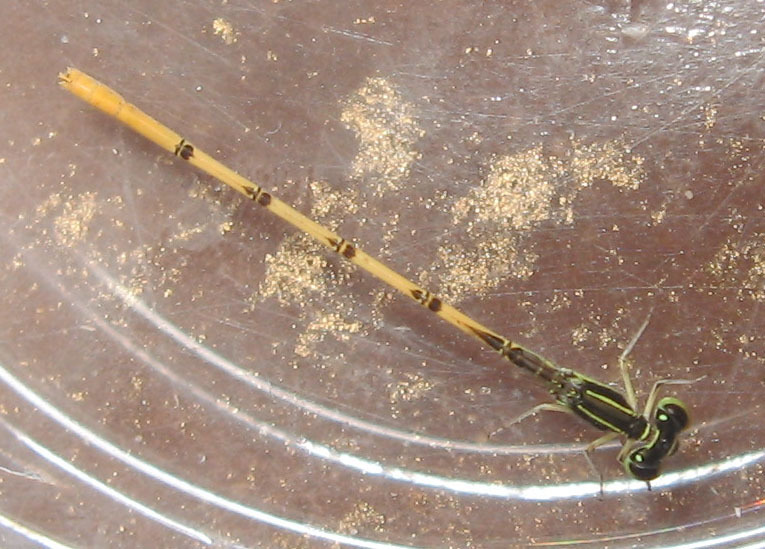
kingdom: Animalia
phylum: Arthropoda
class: Insecta
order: Odonata
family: Coenagrionidae
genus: Ischnura
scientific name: Ischnura hastata
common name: Citrine forktail
